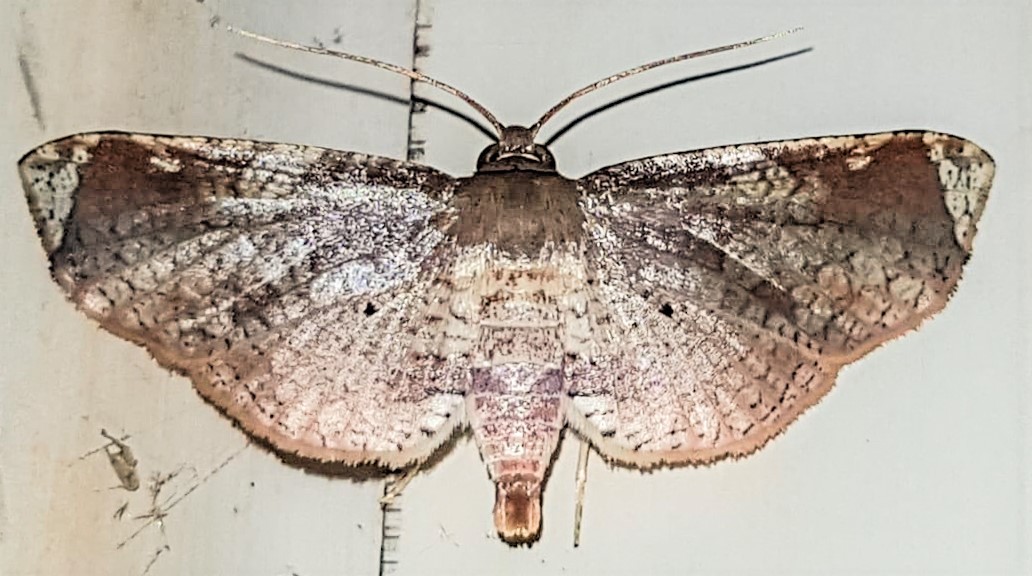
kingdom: Animalia
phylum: Arthropoda
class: Insecta
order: Lepidoptera
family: Thyrididae
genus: Microsca
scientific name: Microsca hedilalis
